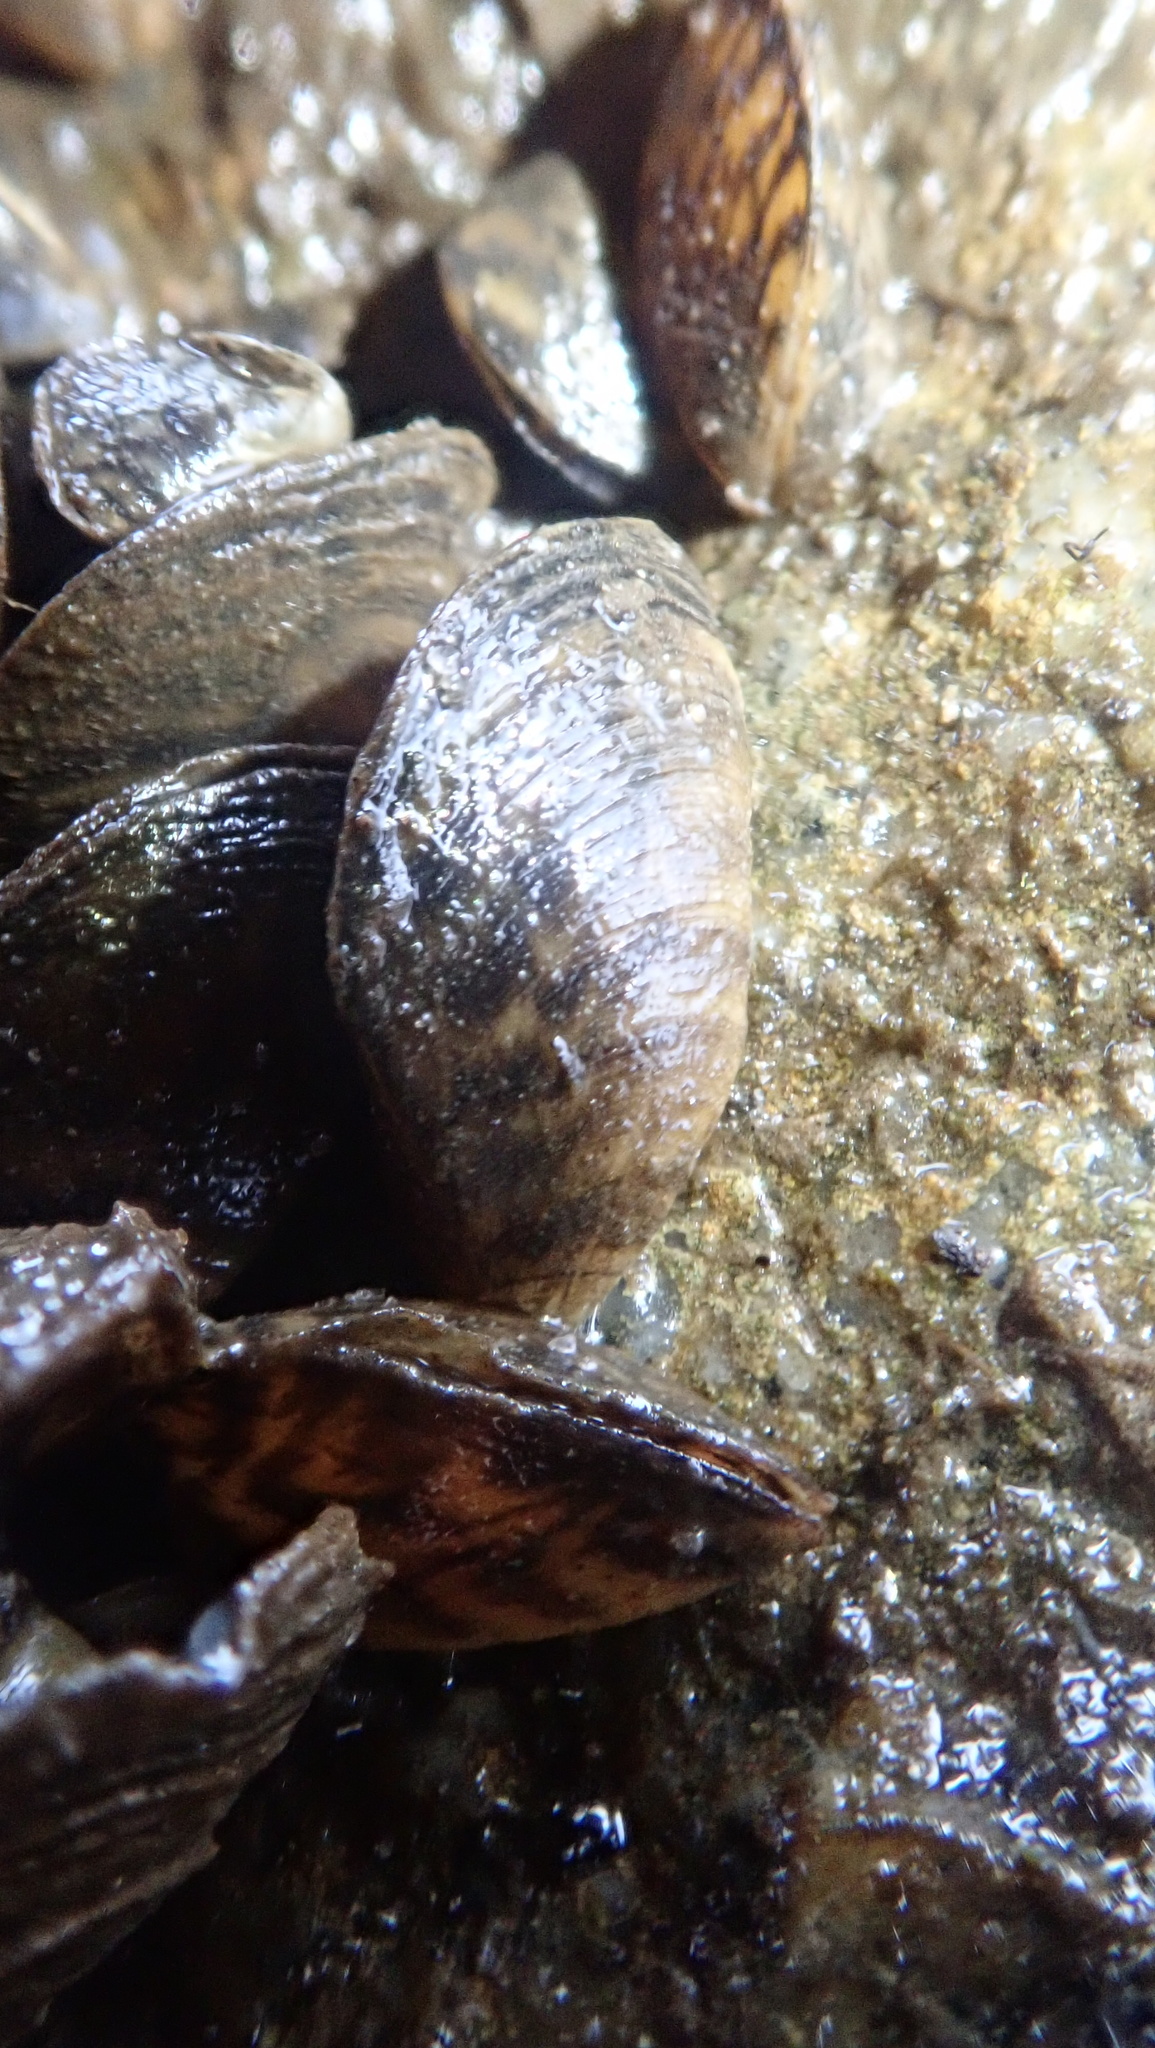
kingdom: Animalia
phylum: Mollusca
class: Bivalvia
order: Myida
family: Dreissenidae
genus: Dreissena
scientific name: Dreissena polymorpha
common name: Zebra mussel
